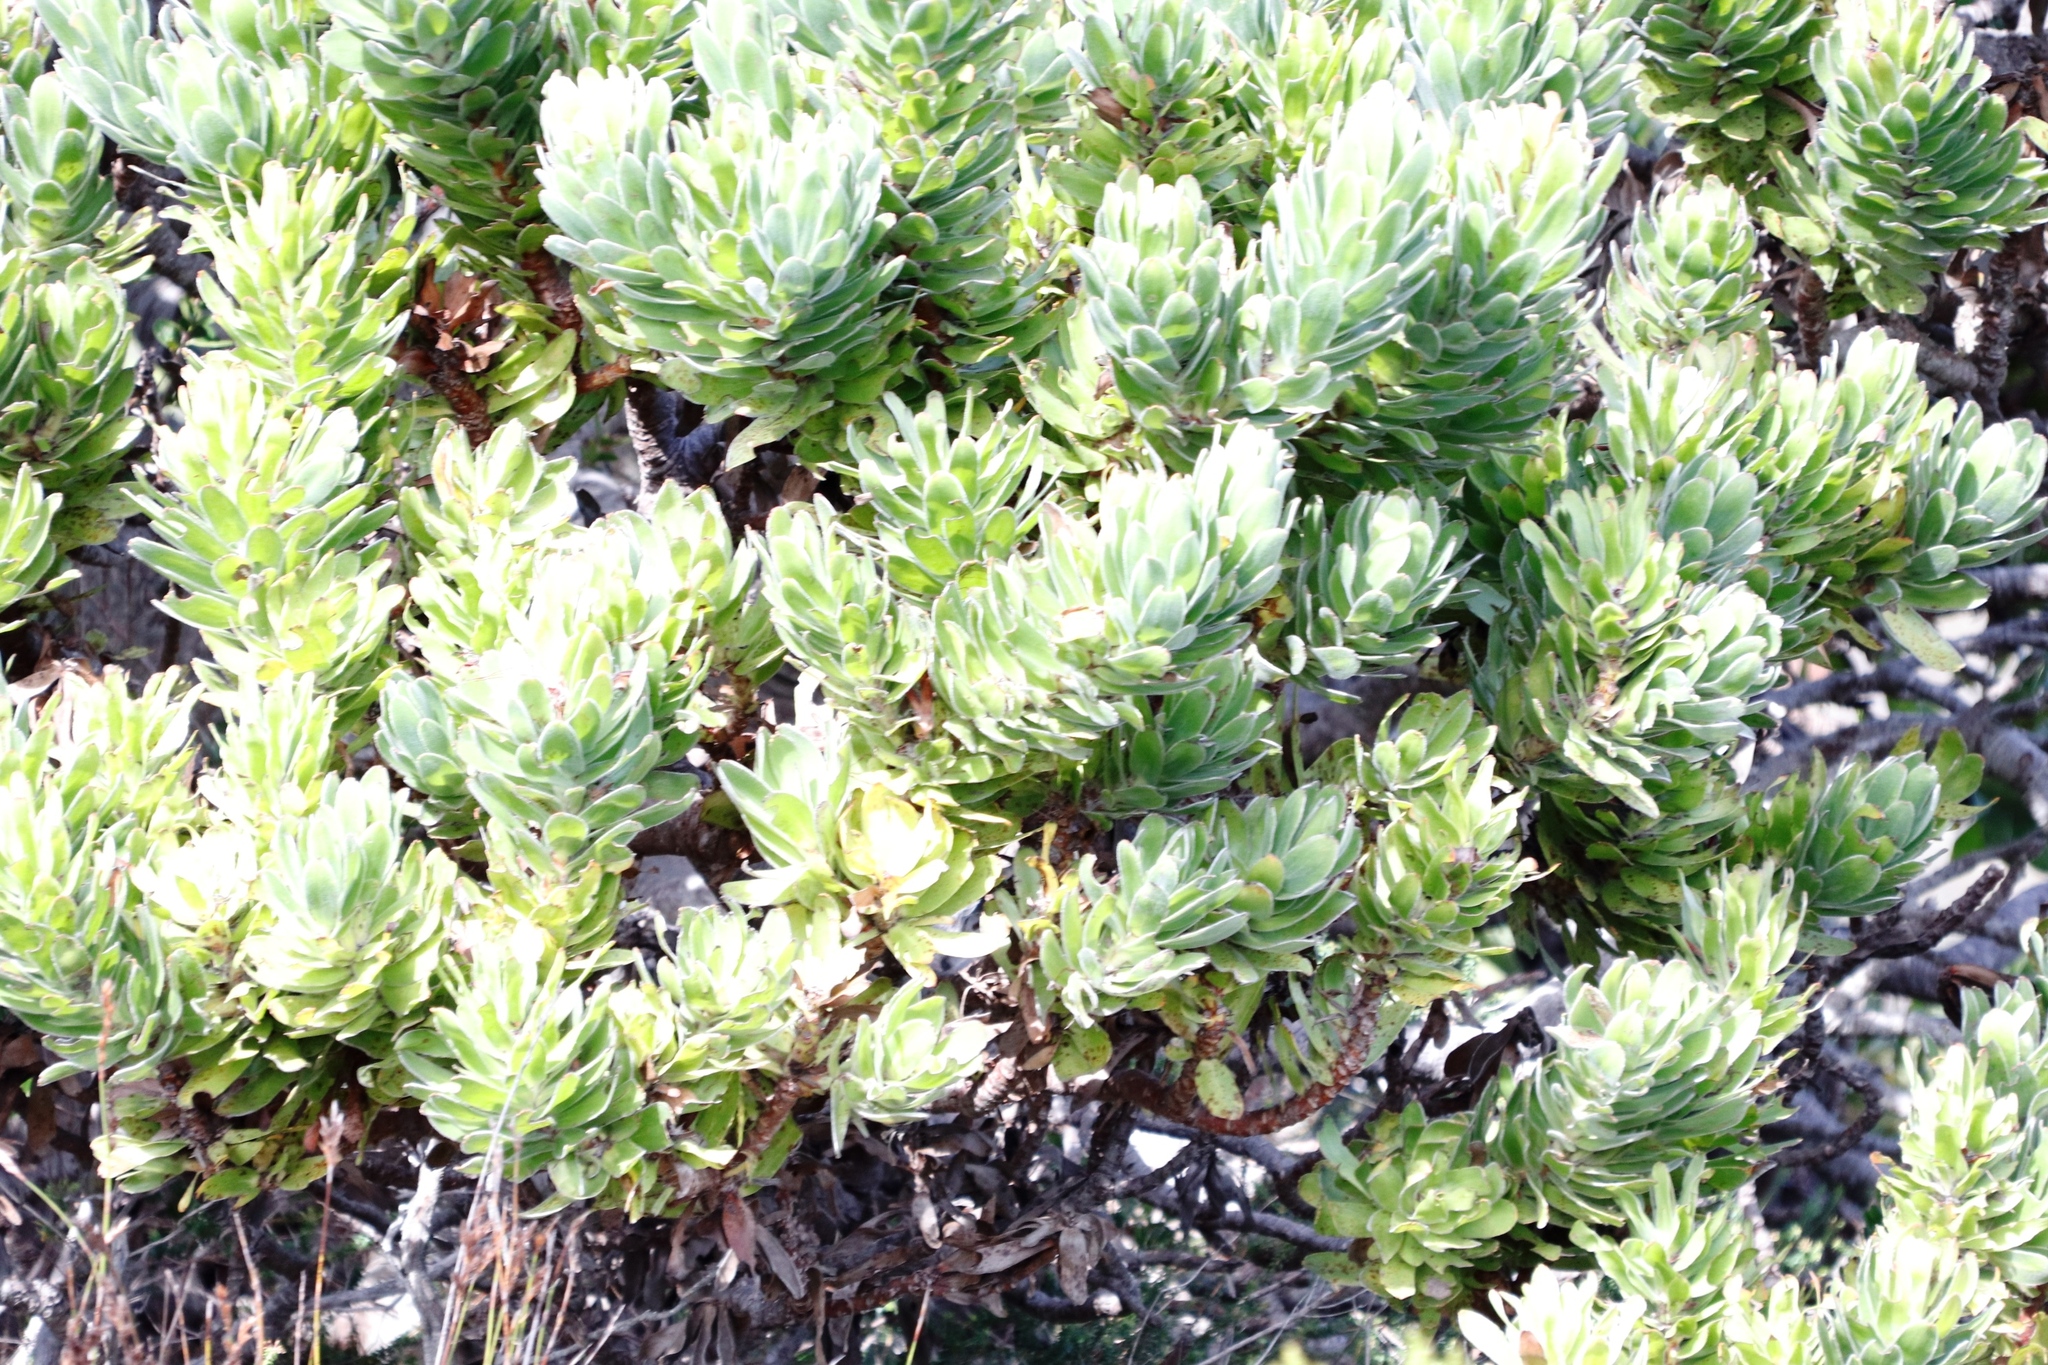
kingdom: Plantae
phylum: Tracheophyta
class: Magnoliopsida
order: Proteales
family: Proteaceae
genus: Mimetes
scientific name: Mimetes fimbriifolius
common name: Fringed bottlebrush
